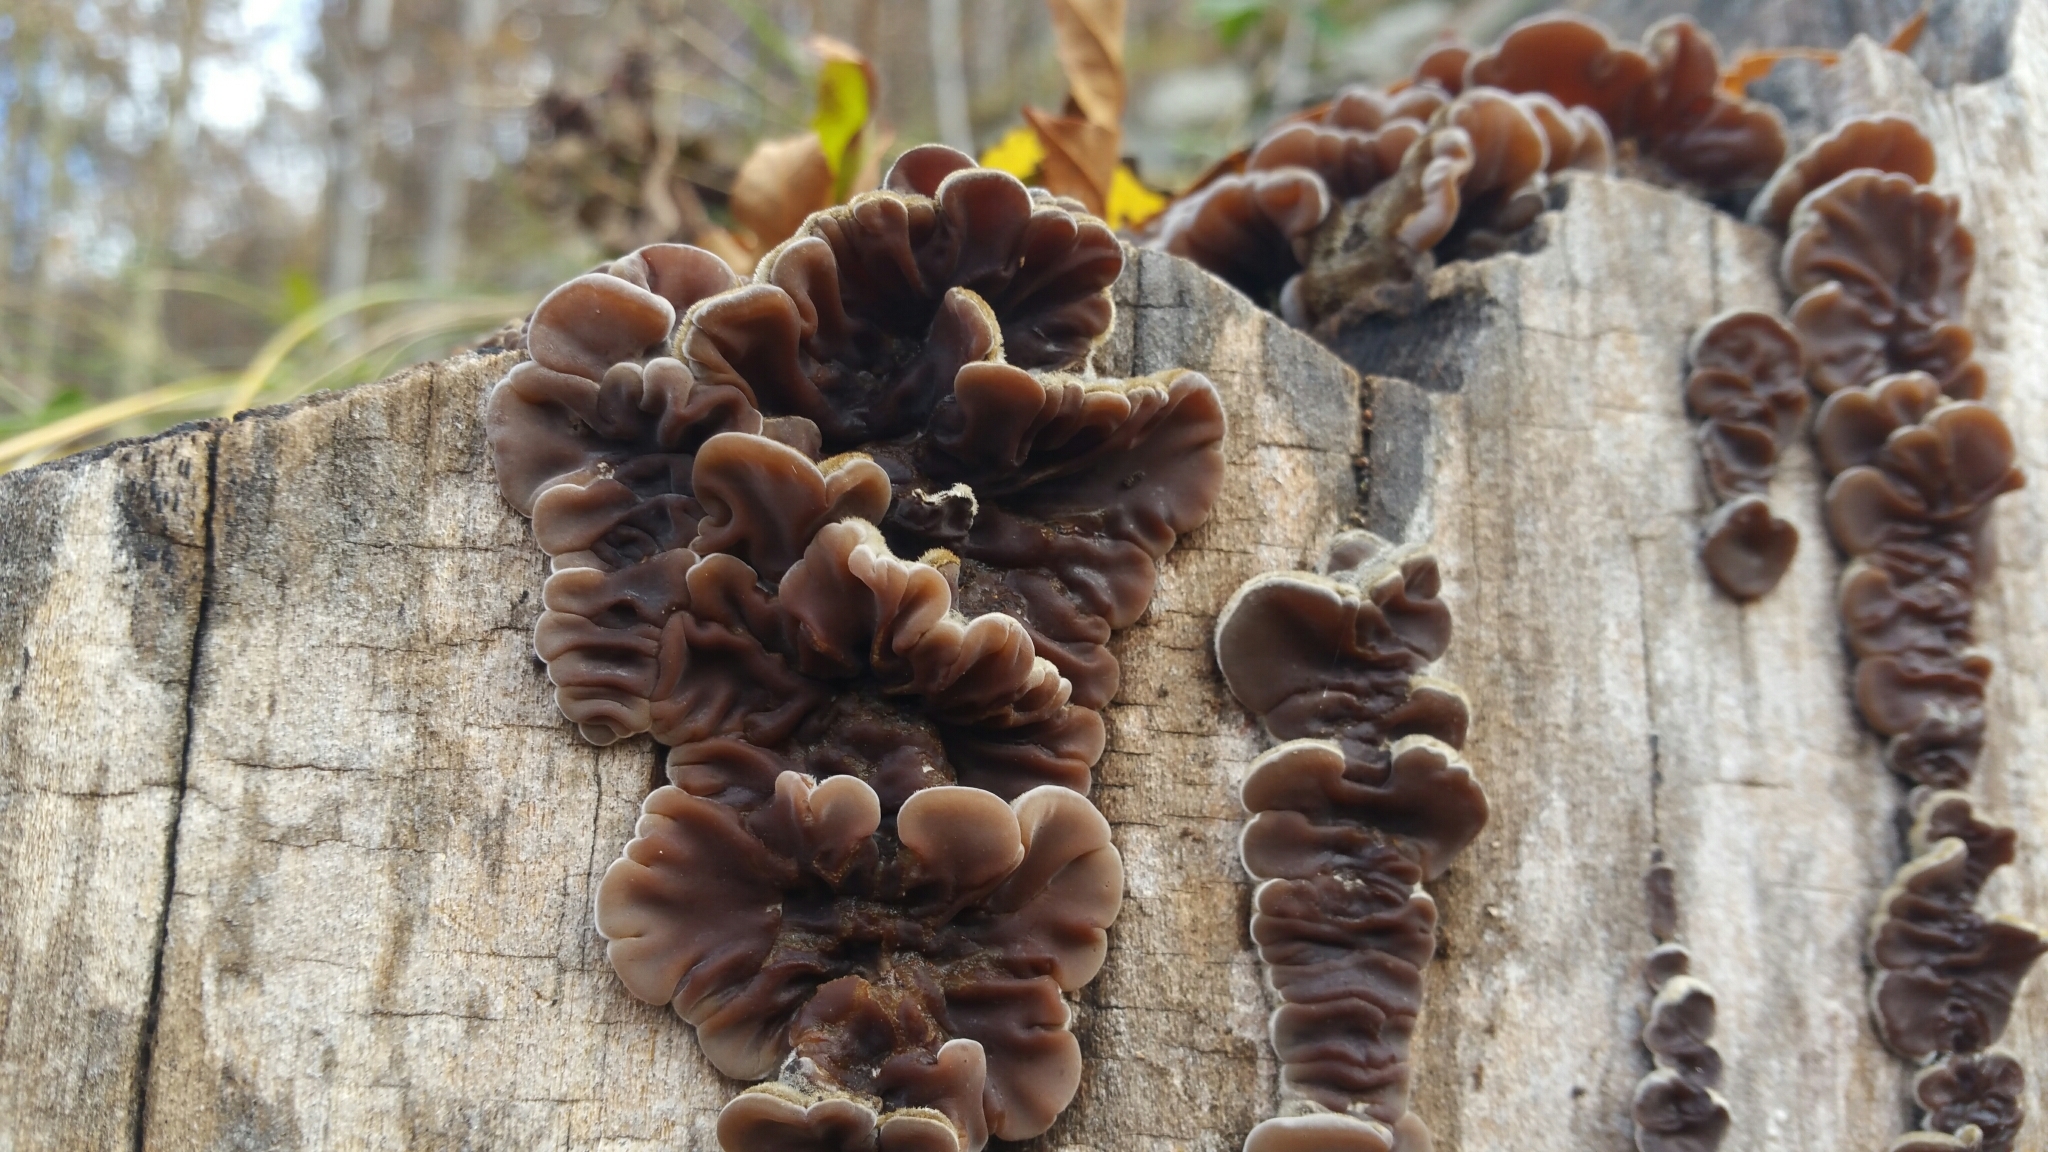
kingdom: Fungi
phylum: Basidiomycota
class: Agaricomycetes
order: Auriculariales
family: Auriculariaceae
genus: Auricularia
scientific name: Auricularia mesenterica
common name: Tripe fungus
